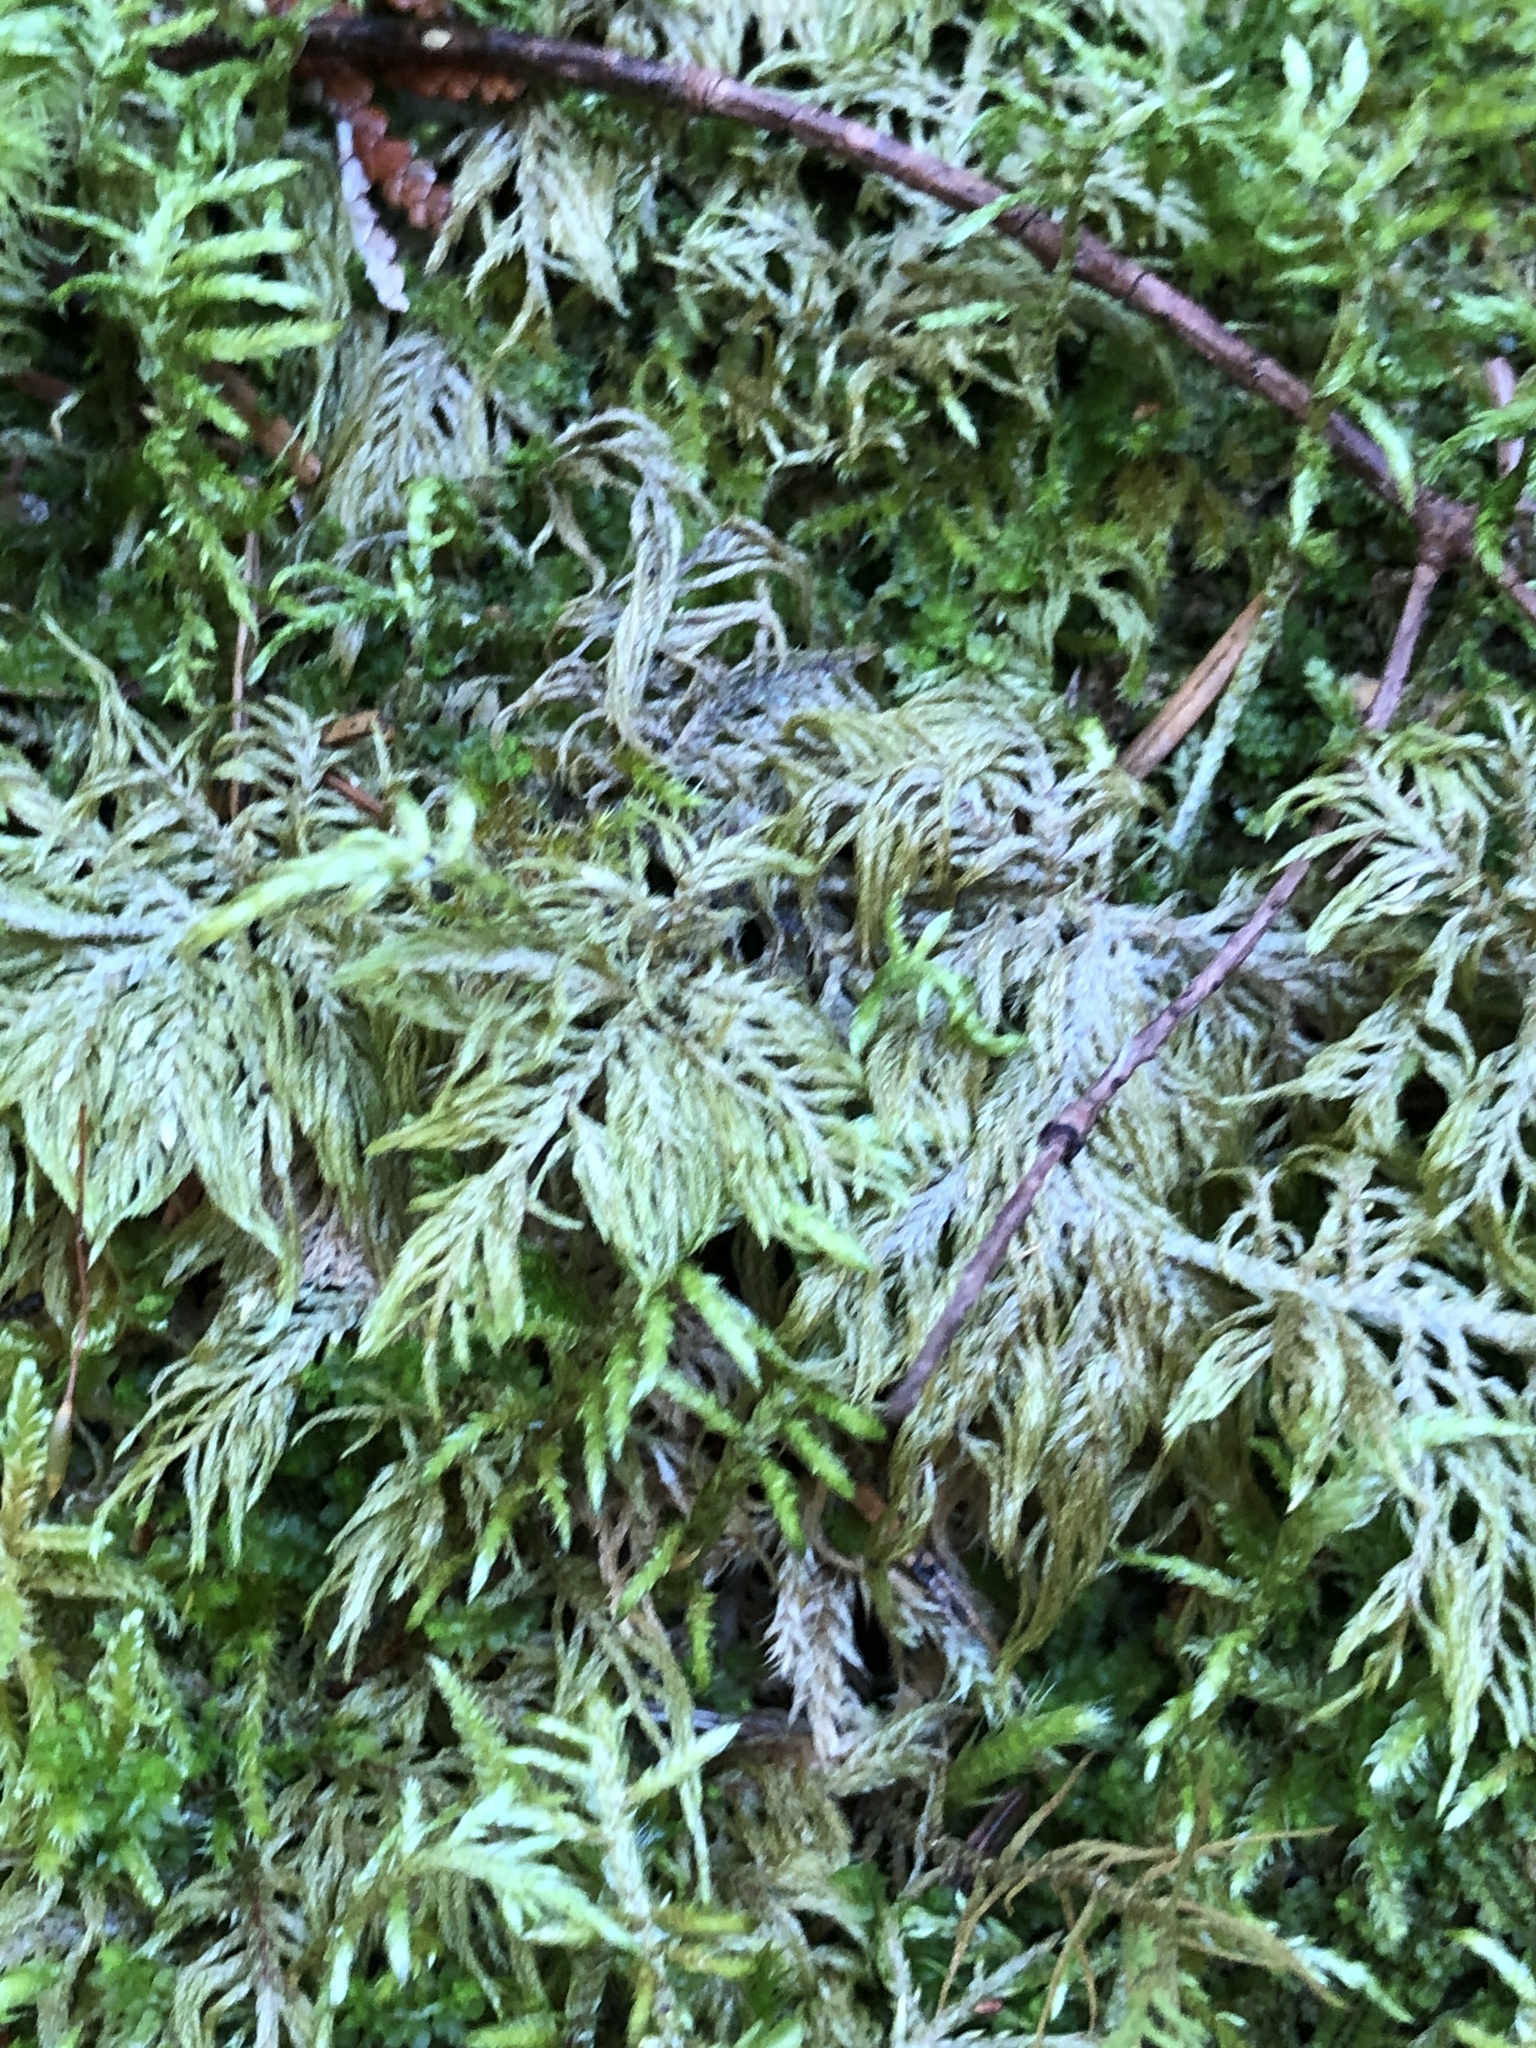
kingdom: Plantae
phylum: Bryophyta
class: Bryopsida
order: Hypnales
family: Hylocomiaceae
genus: Hylocomium
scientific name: Hylocomium splendens
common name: Stairstep moss
